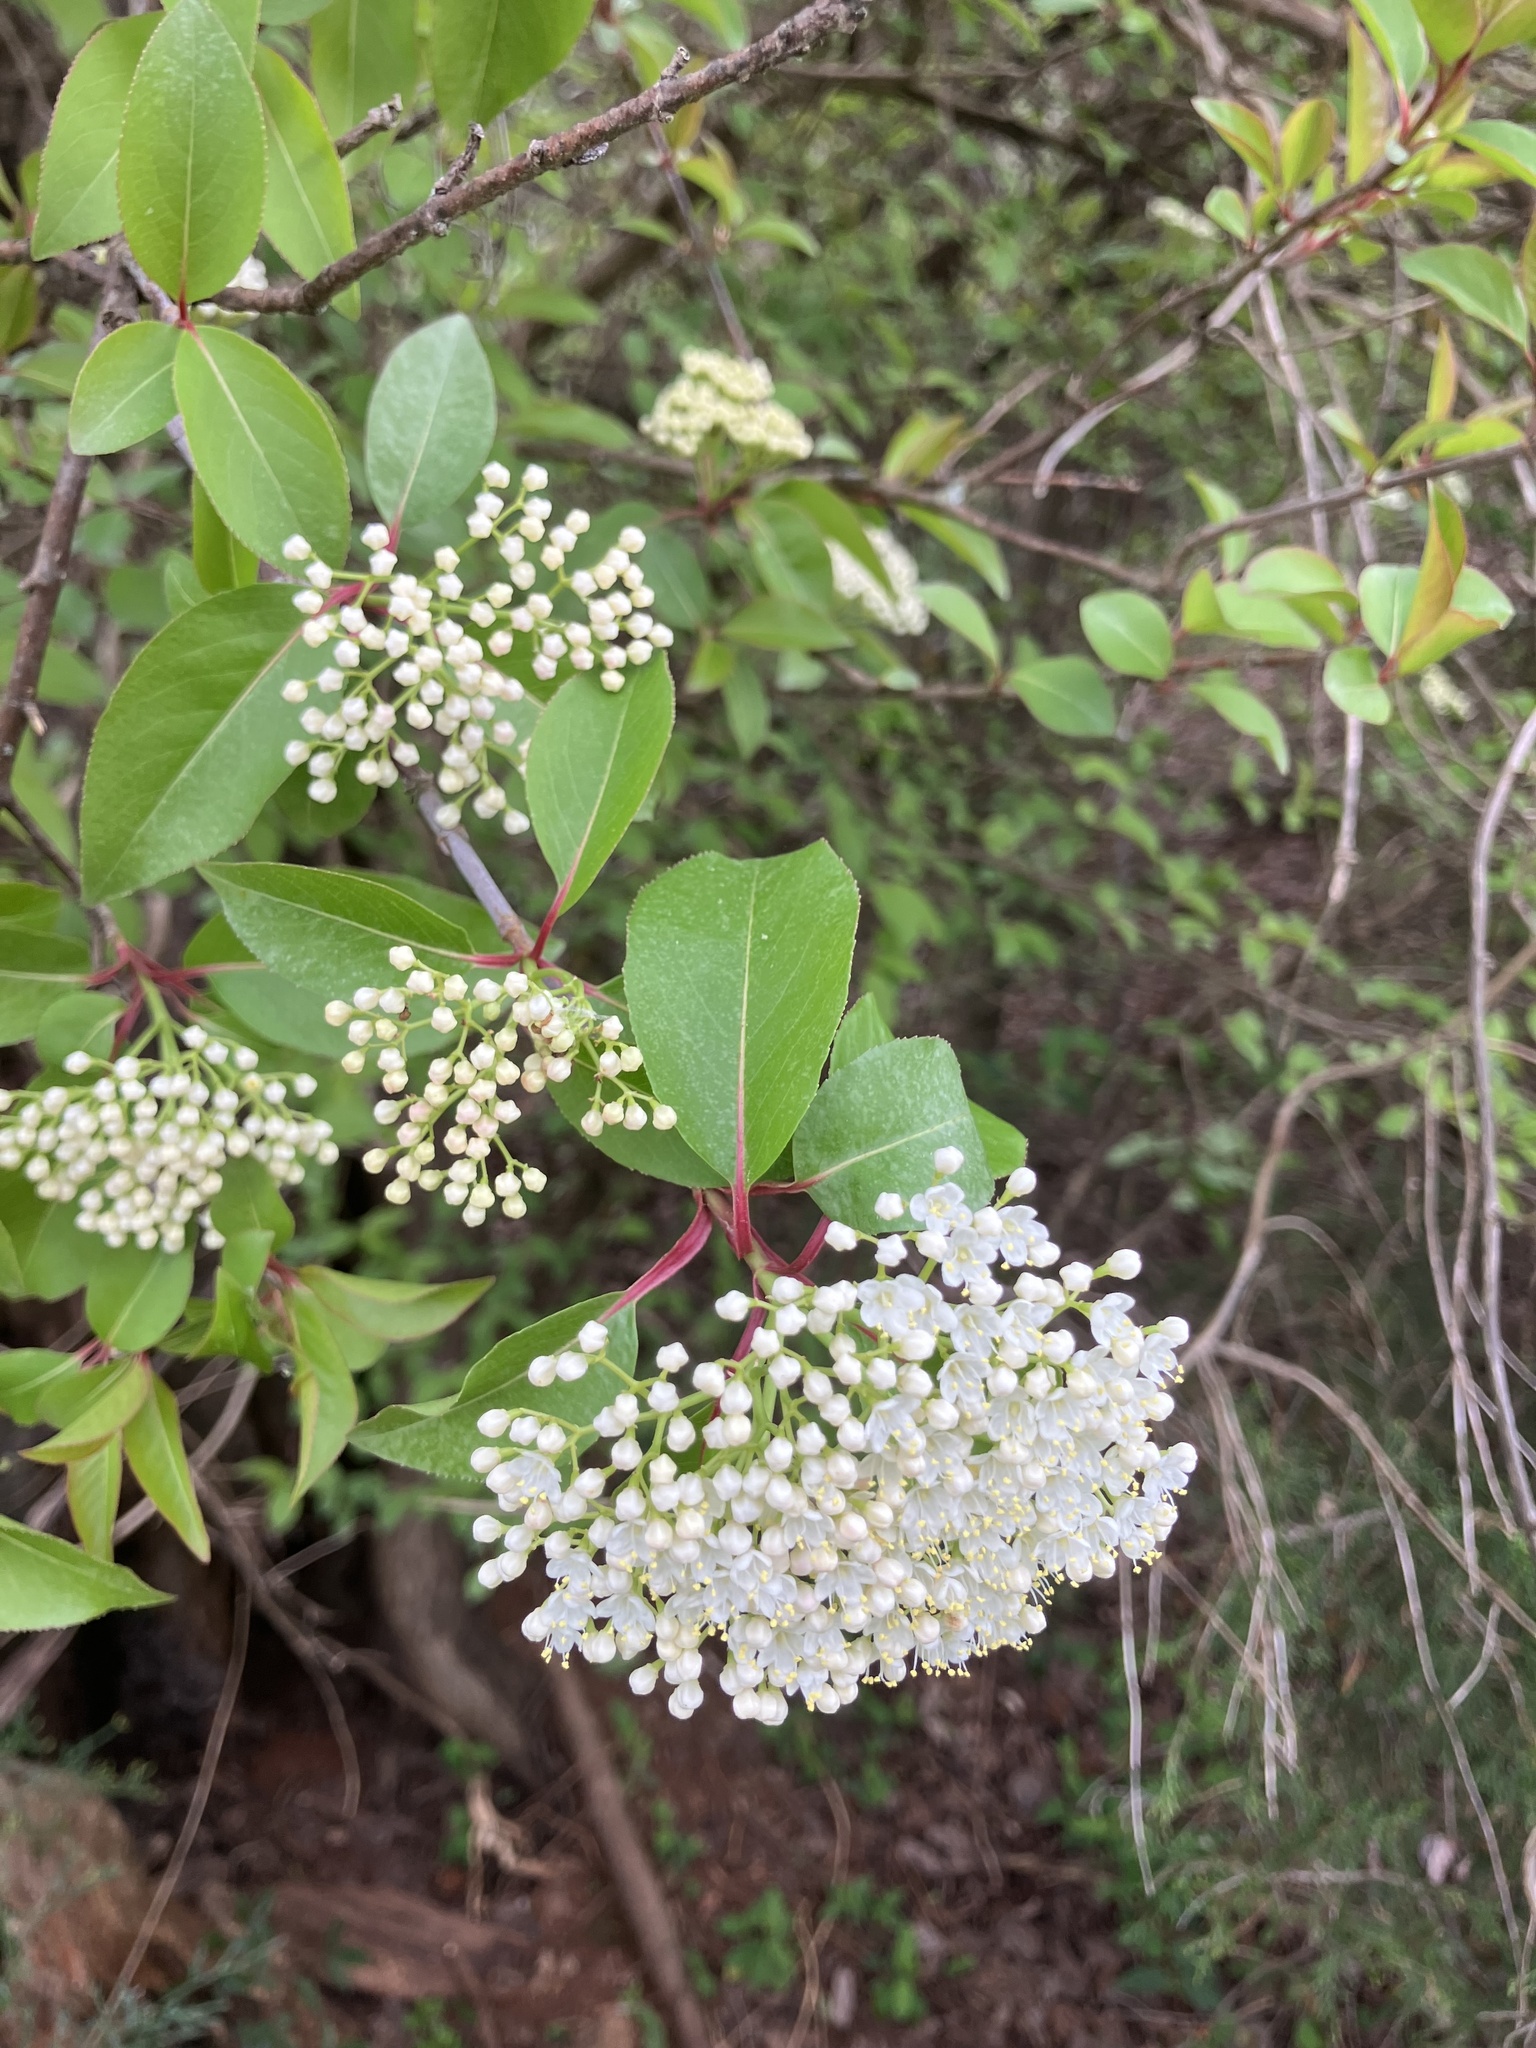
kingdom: Plantae
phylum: Tracheophyta
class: Magnoliopsida
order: Dipsacales
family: Viburnaceae
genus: Viburnum
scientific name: Viburnum prunifolium
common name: Black haw
